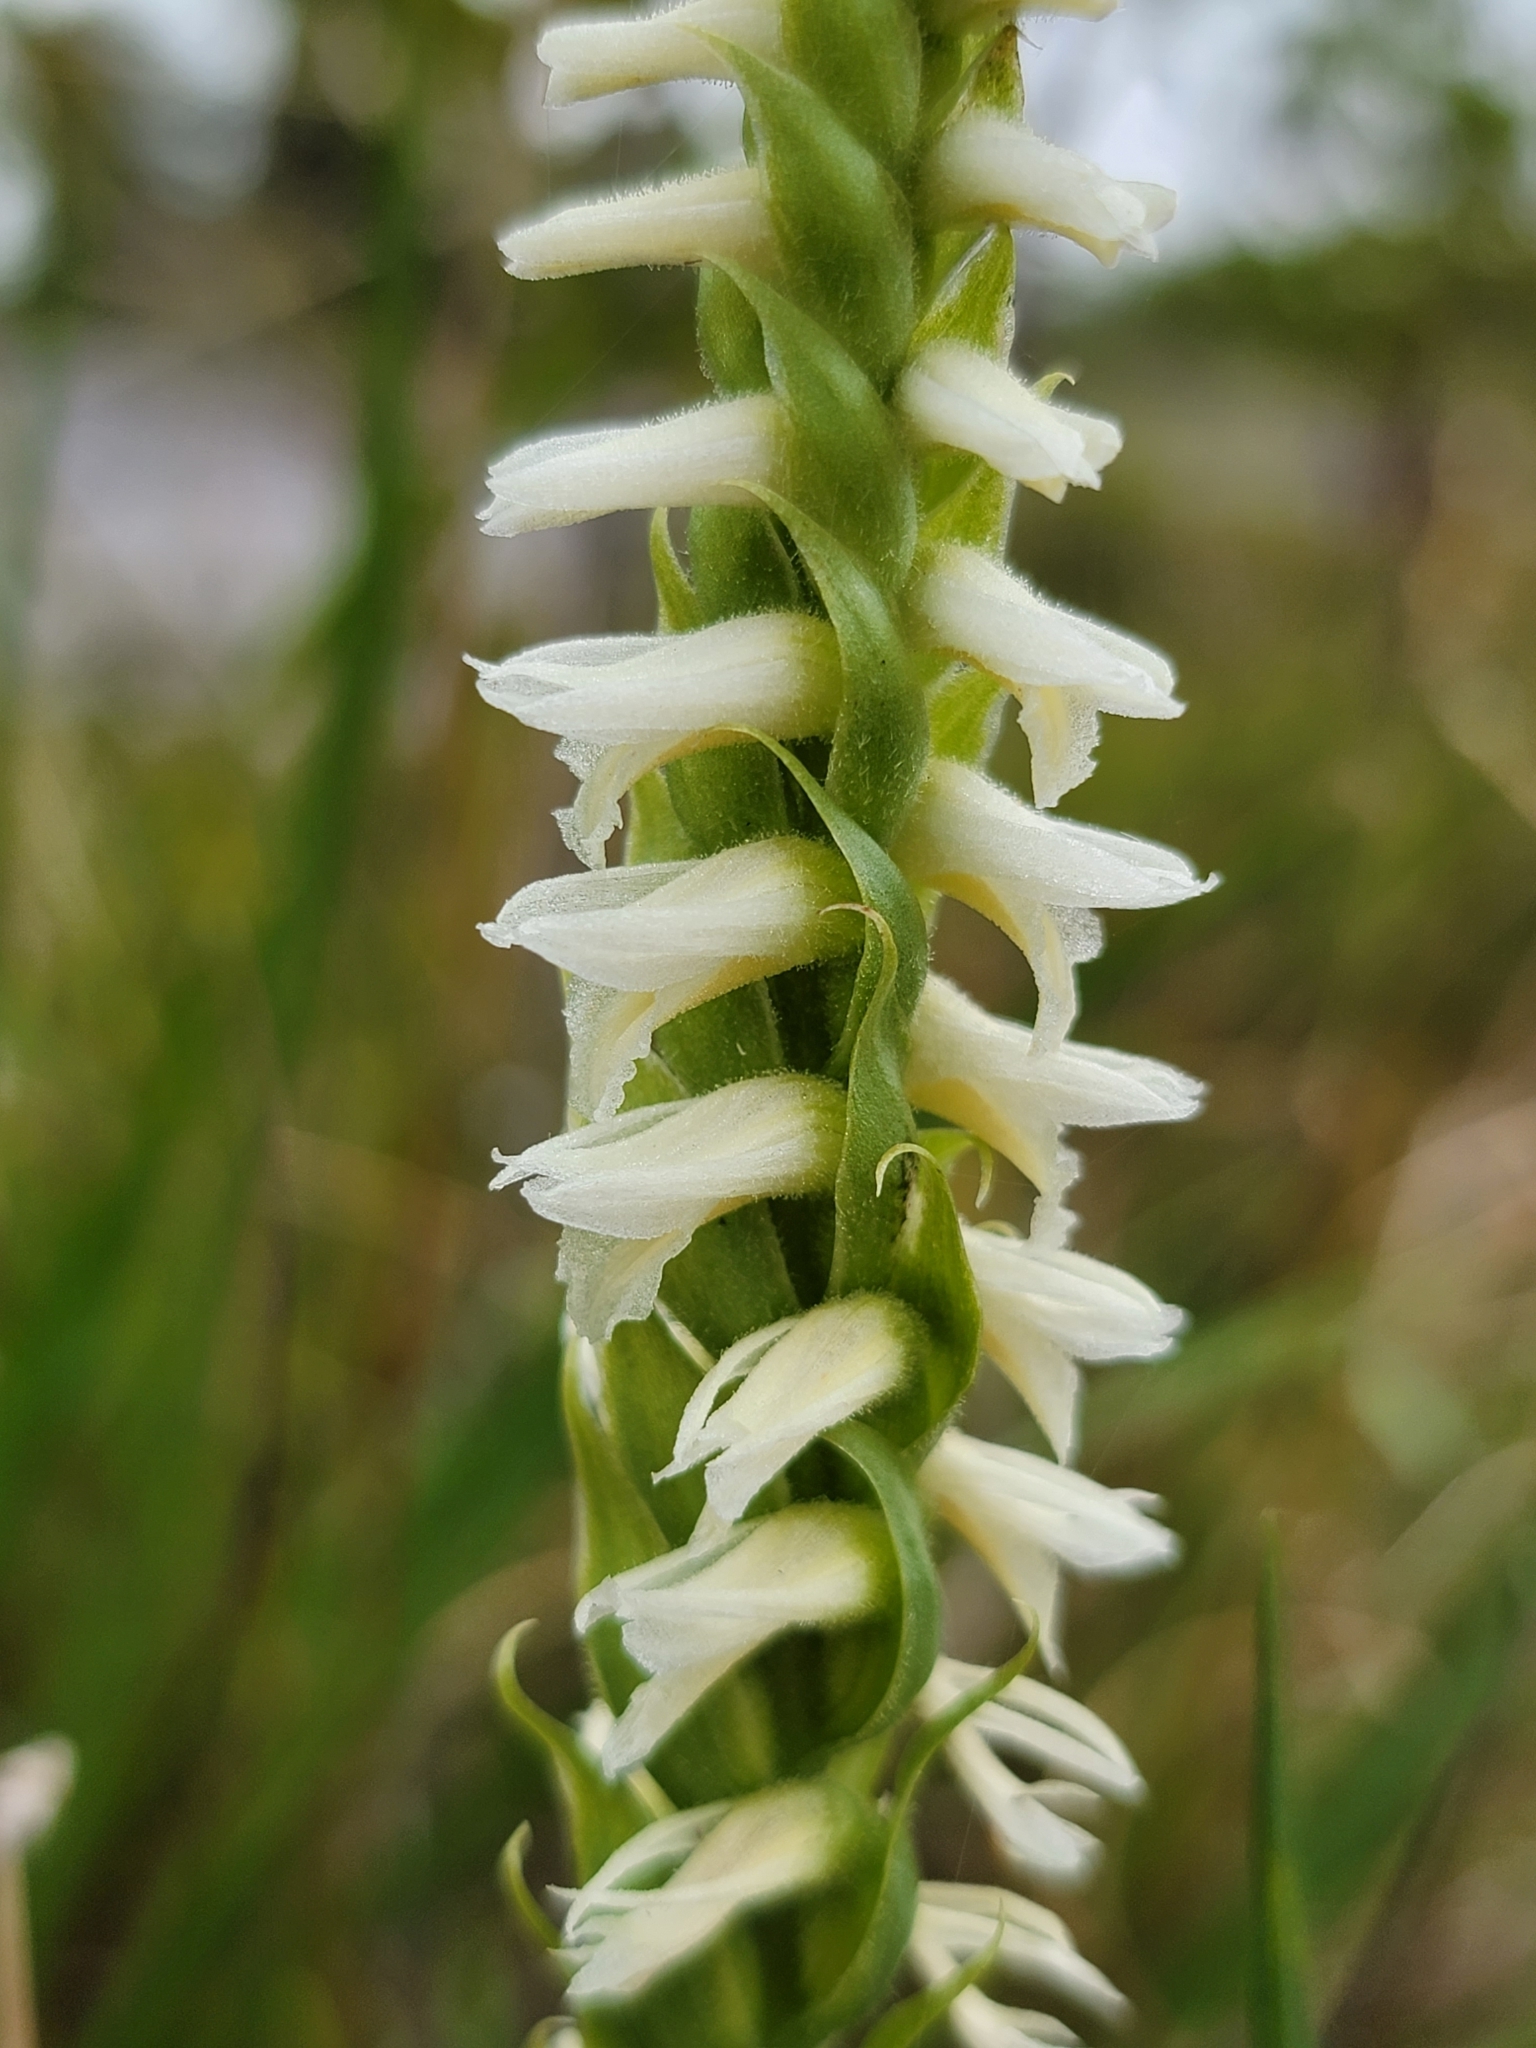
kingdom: Plantae
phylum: Tracheophyta
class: Liliopsida
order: Asparagales
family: Orchidaceae
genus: Spiranthes
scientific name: Spiranthes magnicamporum
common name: Great plains ladies'-tresses
